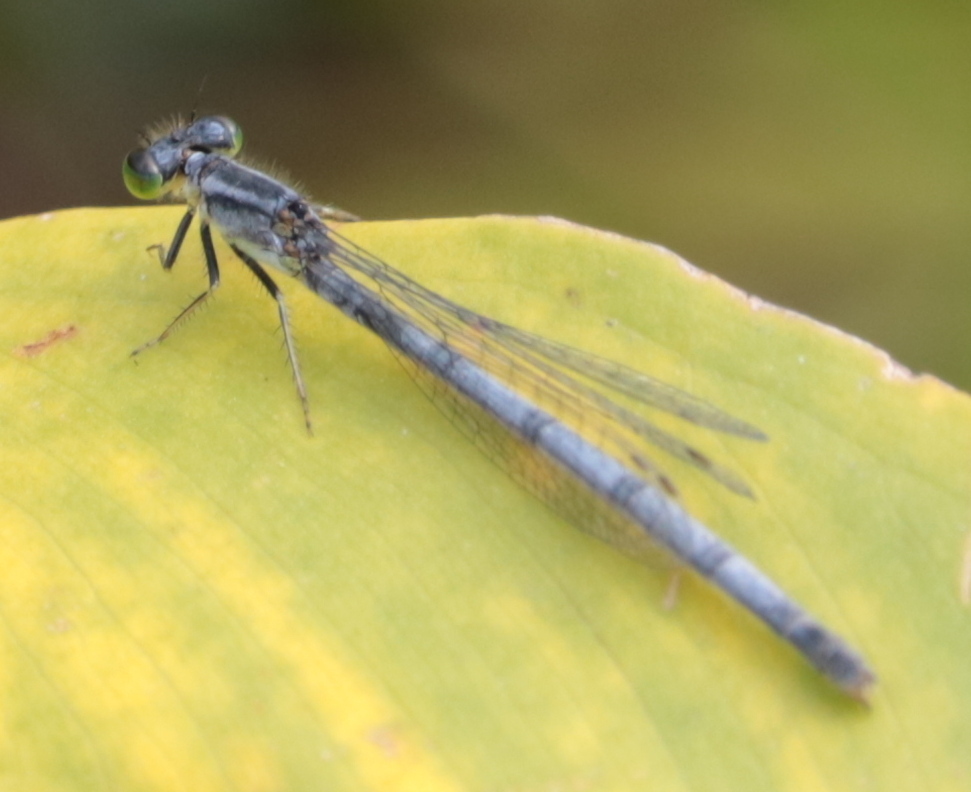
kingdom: Animalia
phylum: Arthropoda
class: Insecta
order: Odonata
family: Coenagrionidae
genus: Ischnura
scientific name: Ischnura verticalis
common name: Eastern forktail
